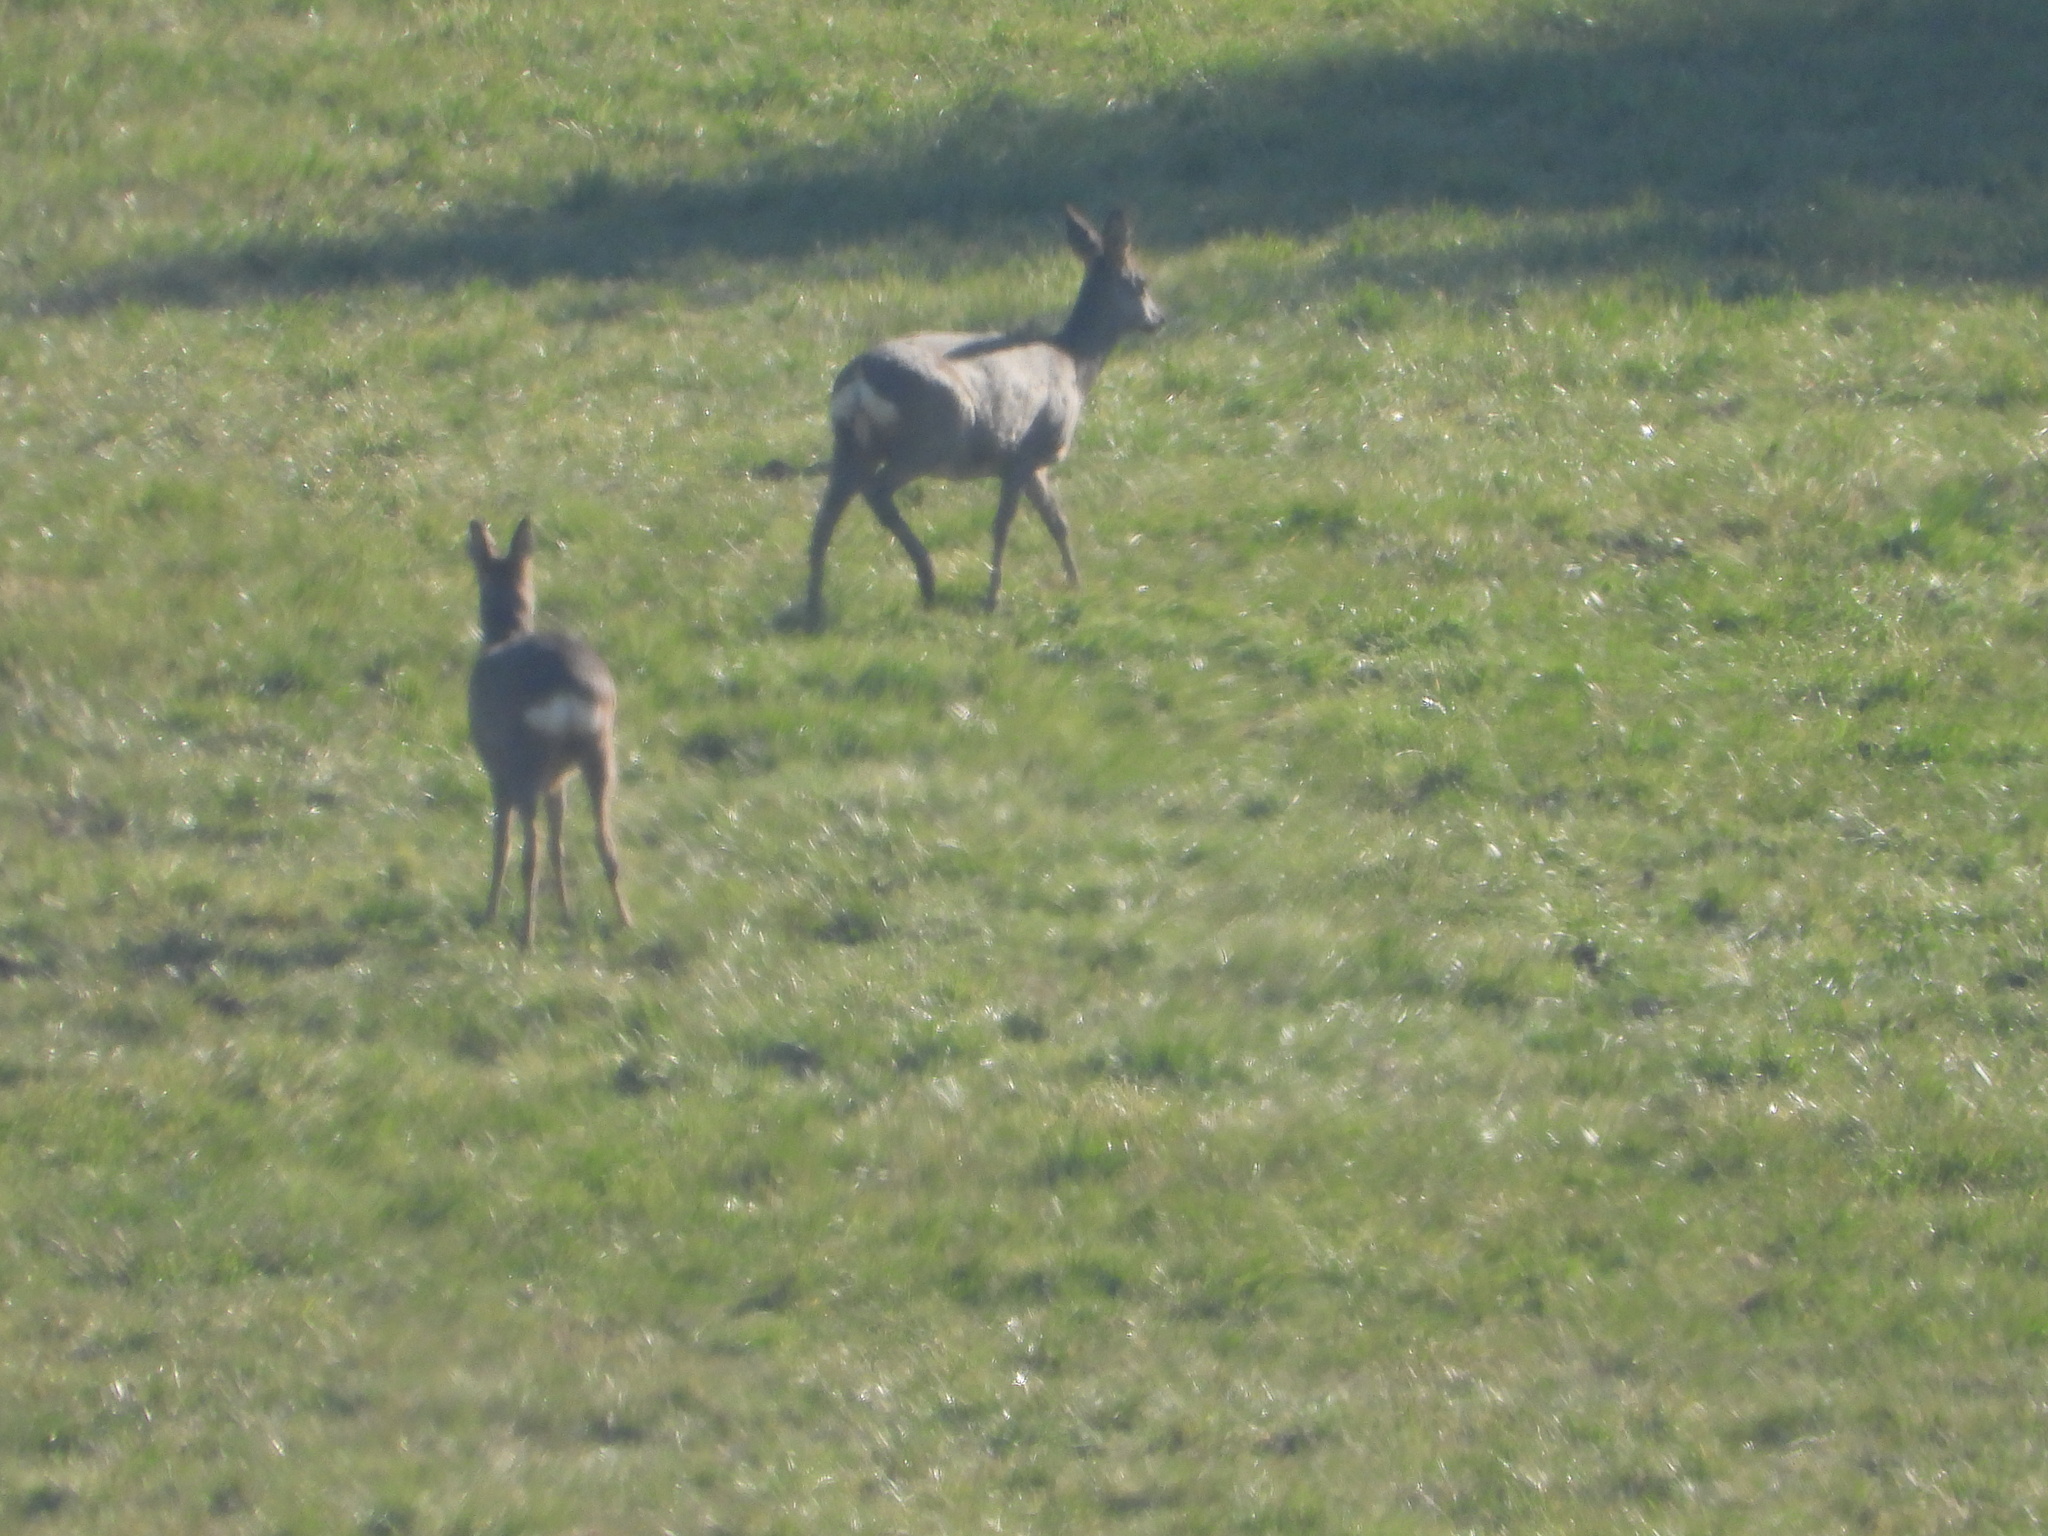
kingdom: Animalia
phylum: Chordata
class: Mammalia
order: Artiodactyla
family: Cervidae
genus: Capreolus
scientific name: Capreolus capreolus
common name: Western roe deer
